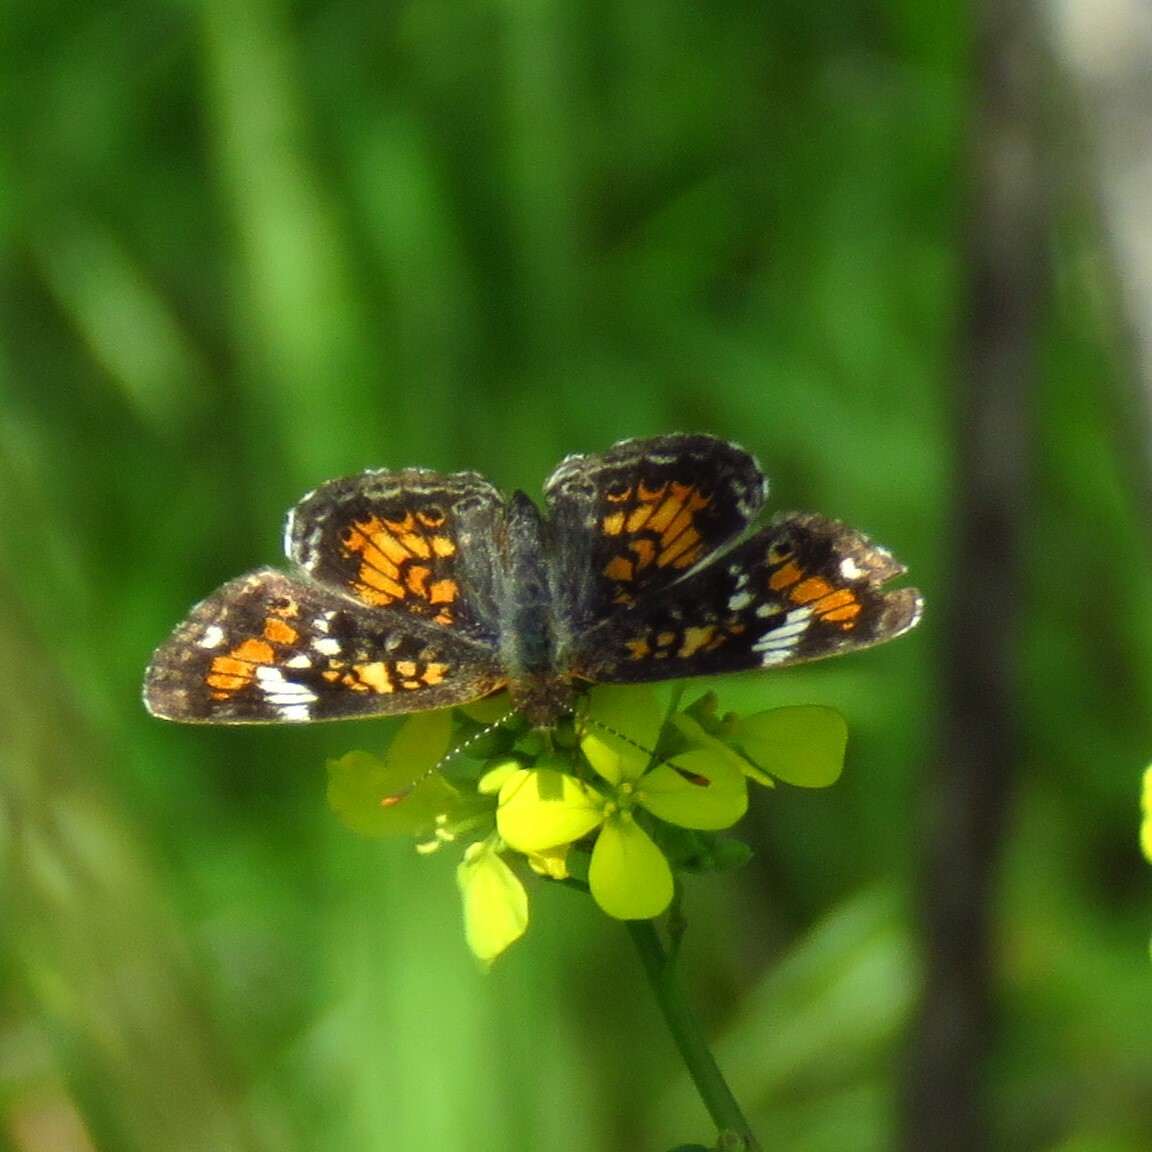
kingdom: Animalia
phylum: Arthropoda
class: Insecta
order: Lepidoptera
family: Nymphalidae
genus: Phyciodes
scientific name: Phyciodes phaon
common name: Phaon crescent
